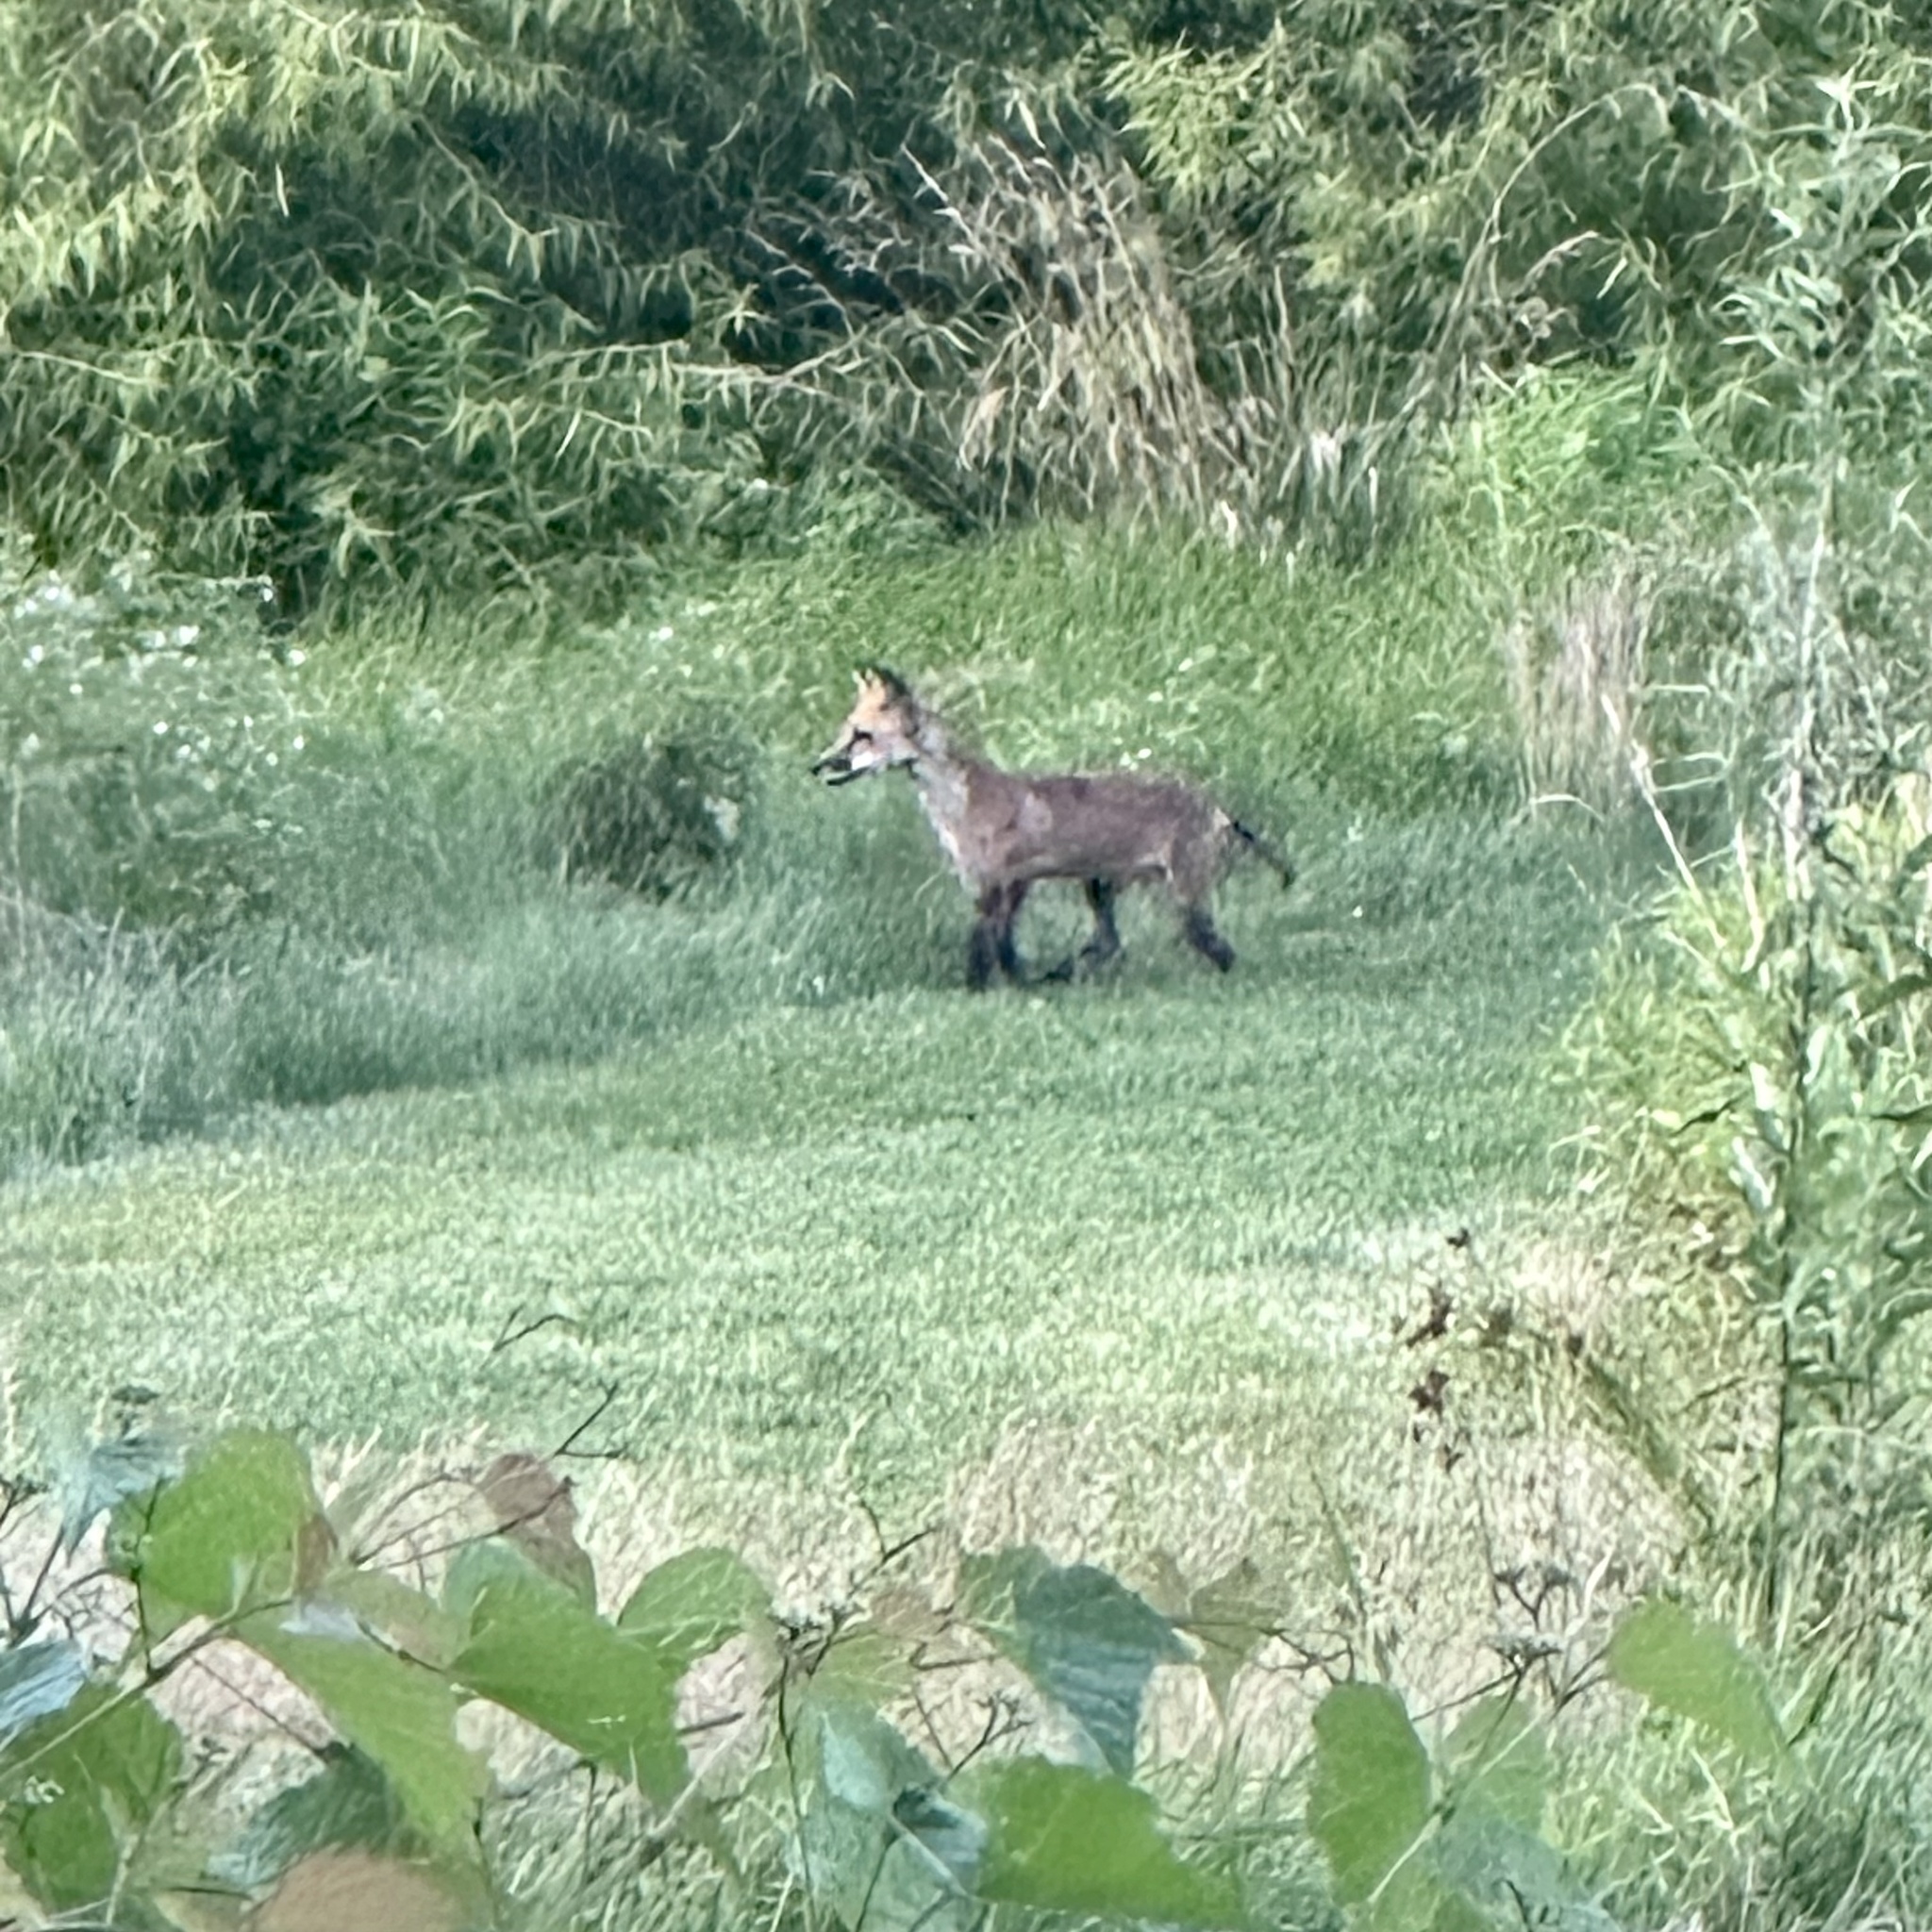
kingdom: Animalia
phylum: Chordata
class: Mammalia
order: Carnivora
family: Canidae
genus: Vulpes
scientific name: Vulpes vulpes
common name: Red fox
